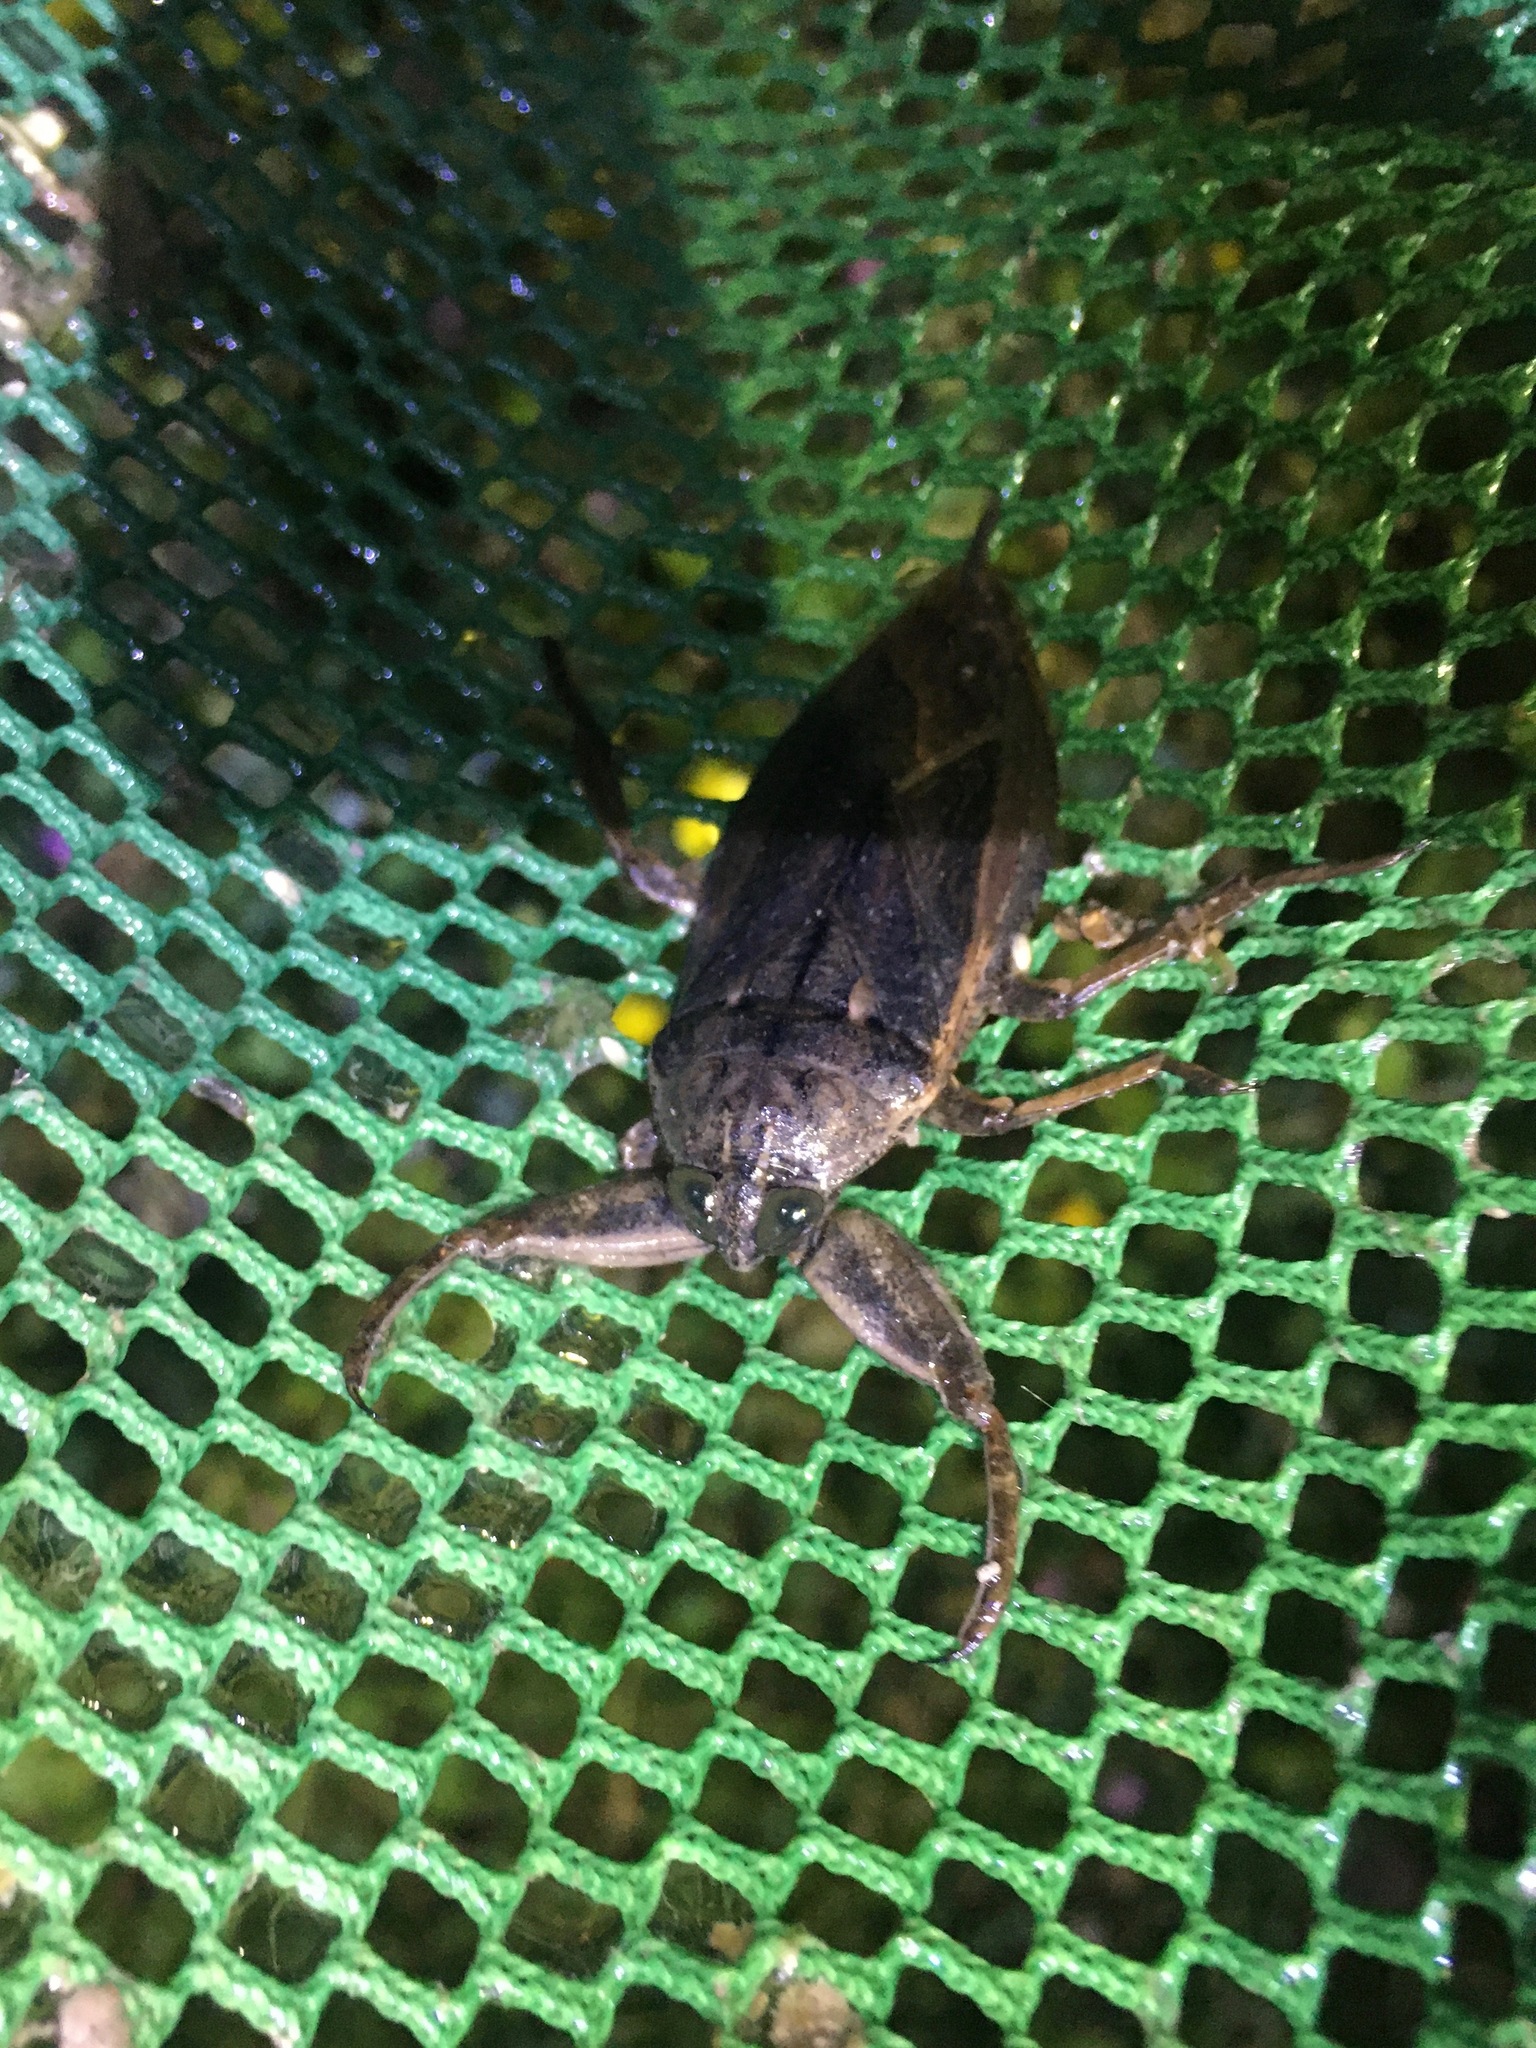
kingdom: Animalia
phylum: Arthropoda
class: Insecta
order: Hemiptera
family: Belostomatidae
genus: Lethocerus
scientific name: Lethocerus uhleri
